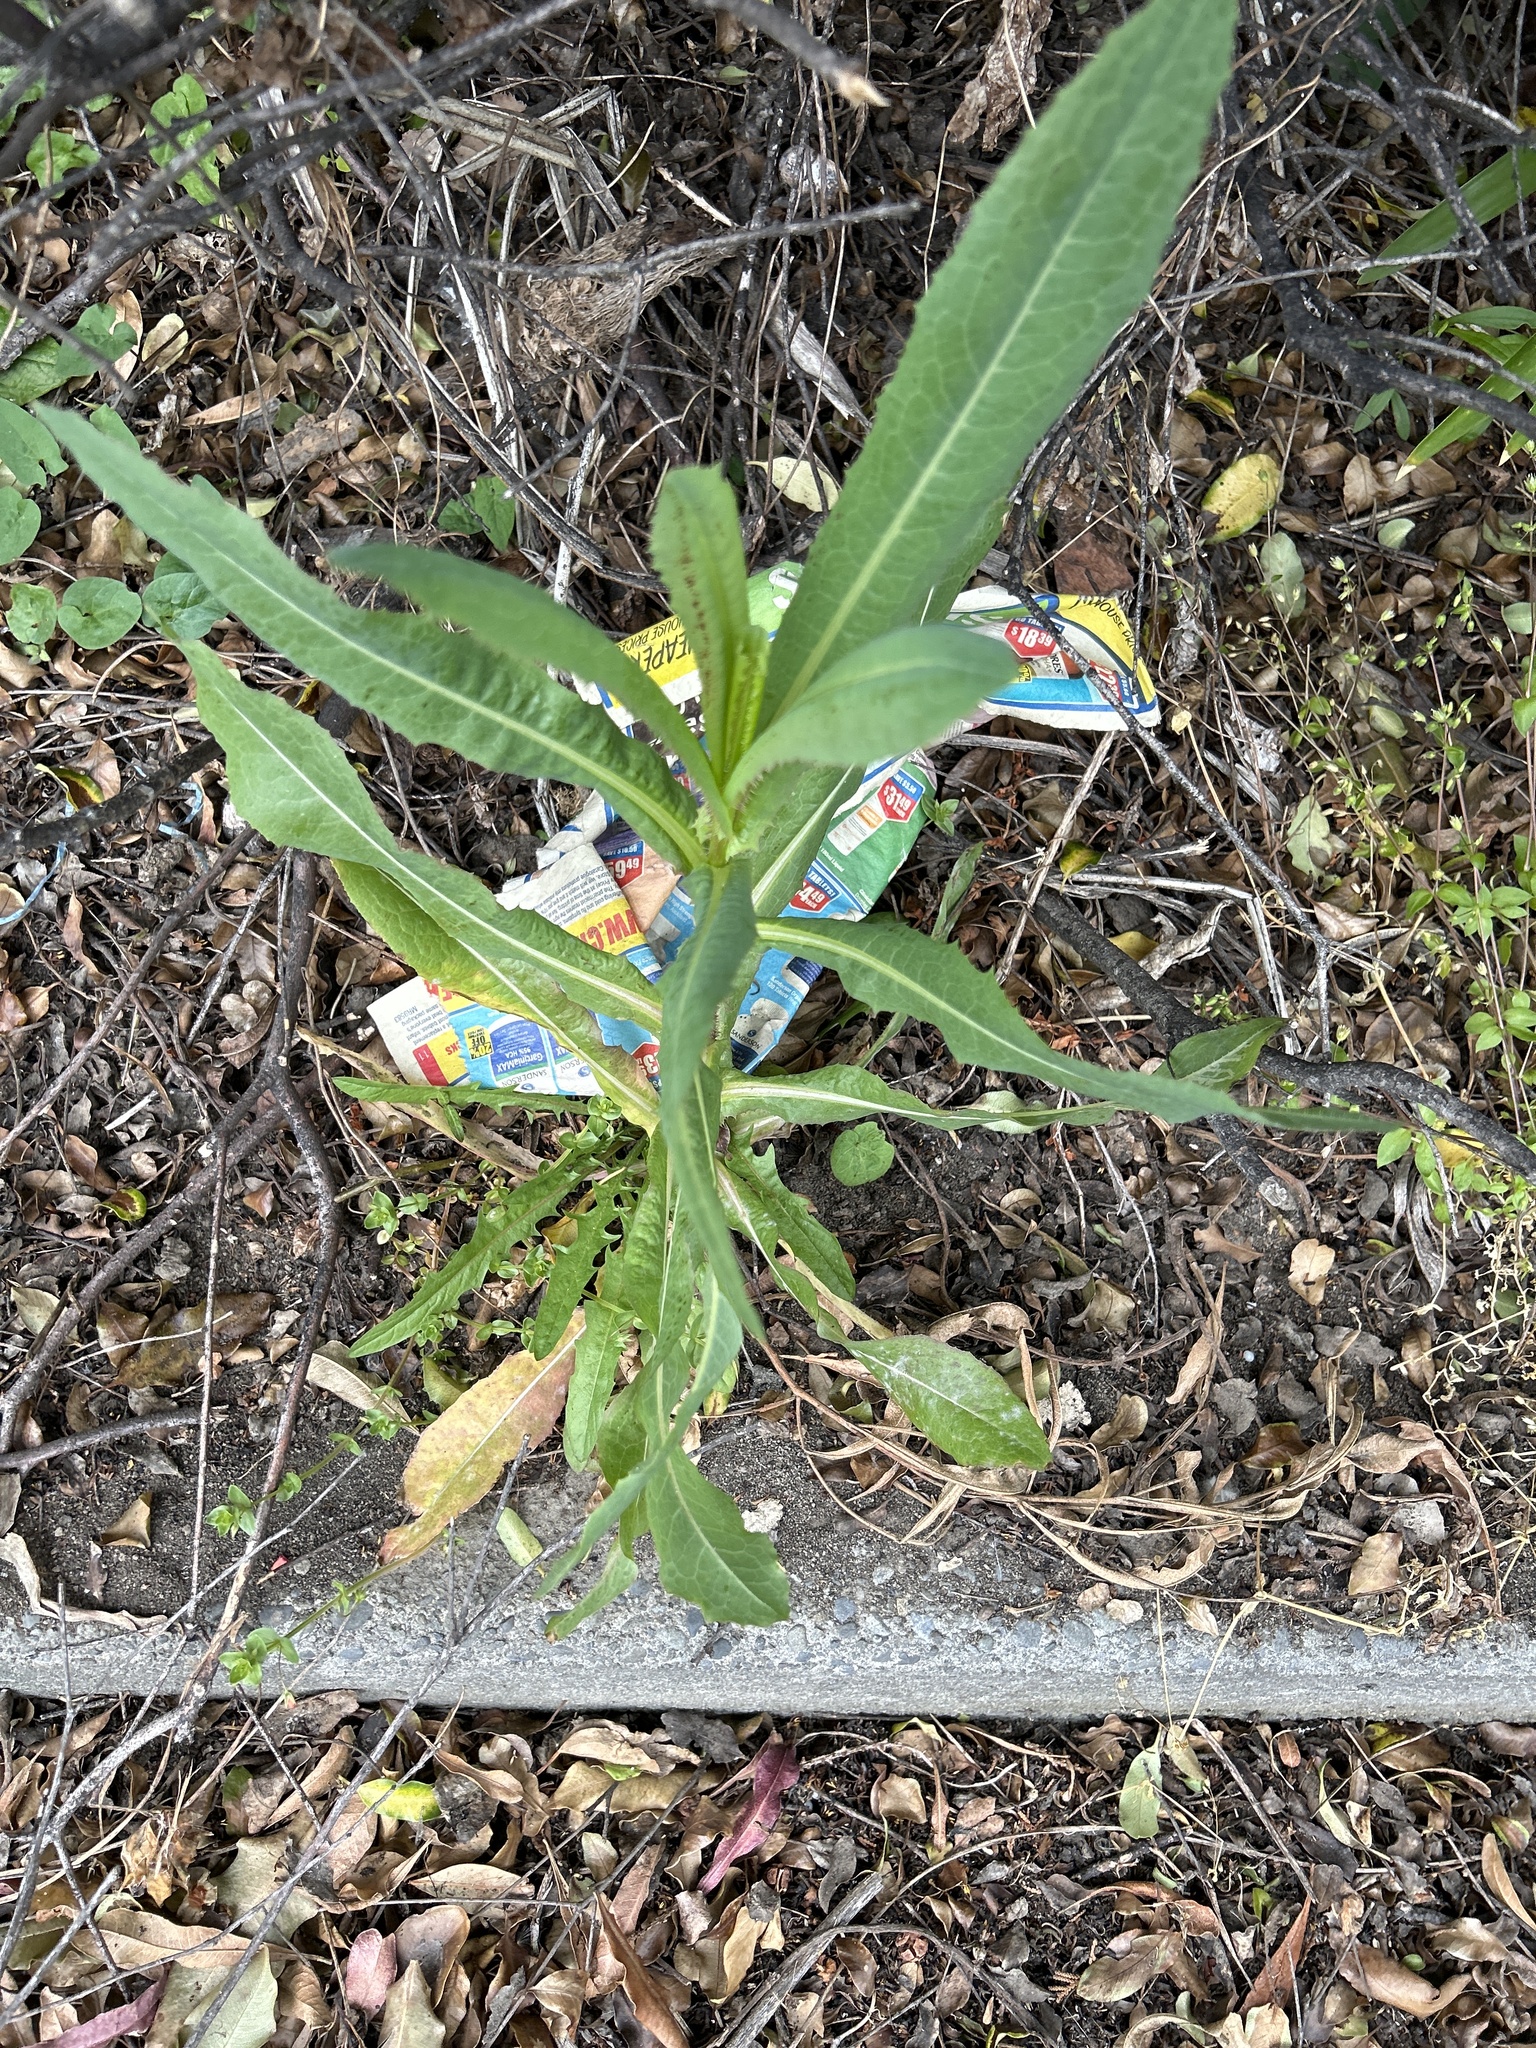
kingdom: Plantae
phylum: Tracheophyta
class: Magnoliopsida
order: Asterales
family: Asteraceae
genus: Lactuca
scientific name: Lactuca serriola
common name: Prickly lettuce
